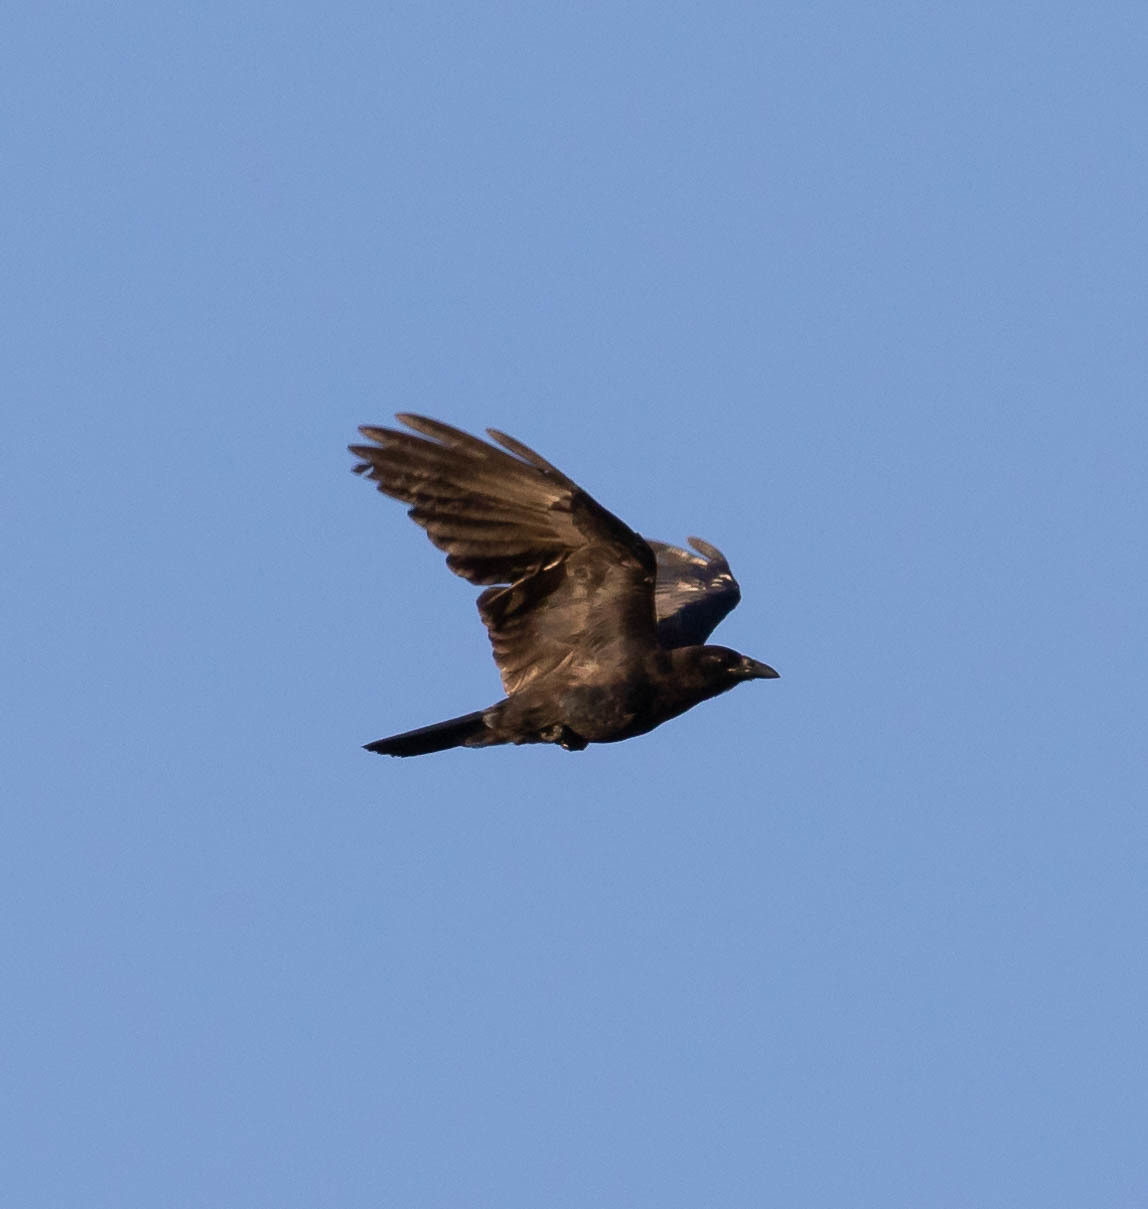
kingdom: Animalia
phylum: Chordata
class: Aves
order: Passeriformes
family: Corvidae
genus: Corvus
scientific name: Corvus ossifragus
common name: Fish crow
